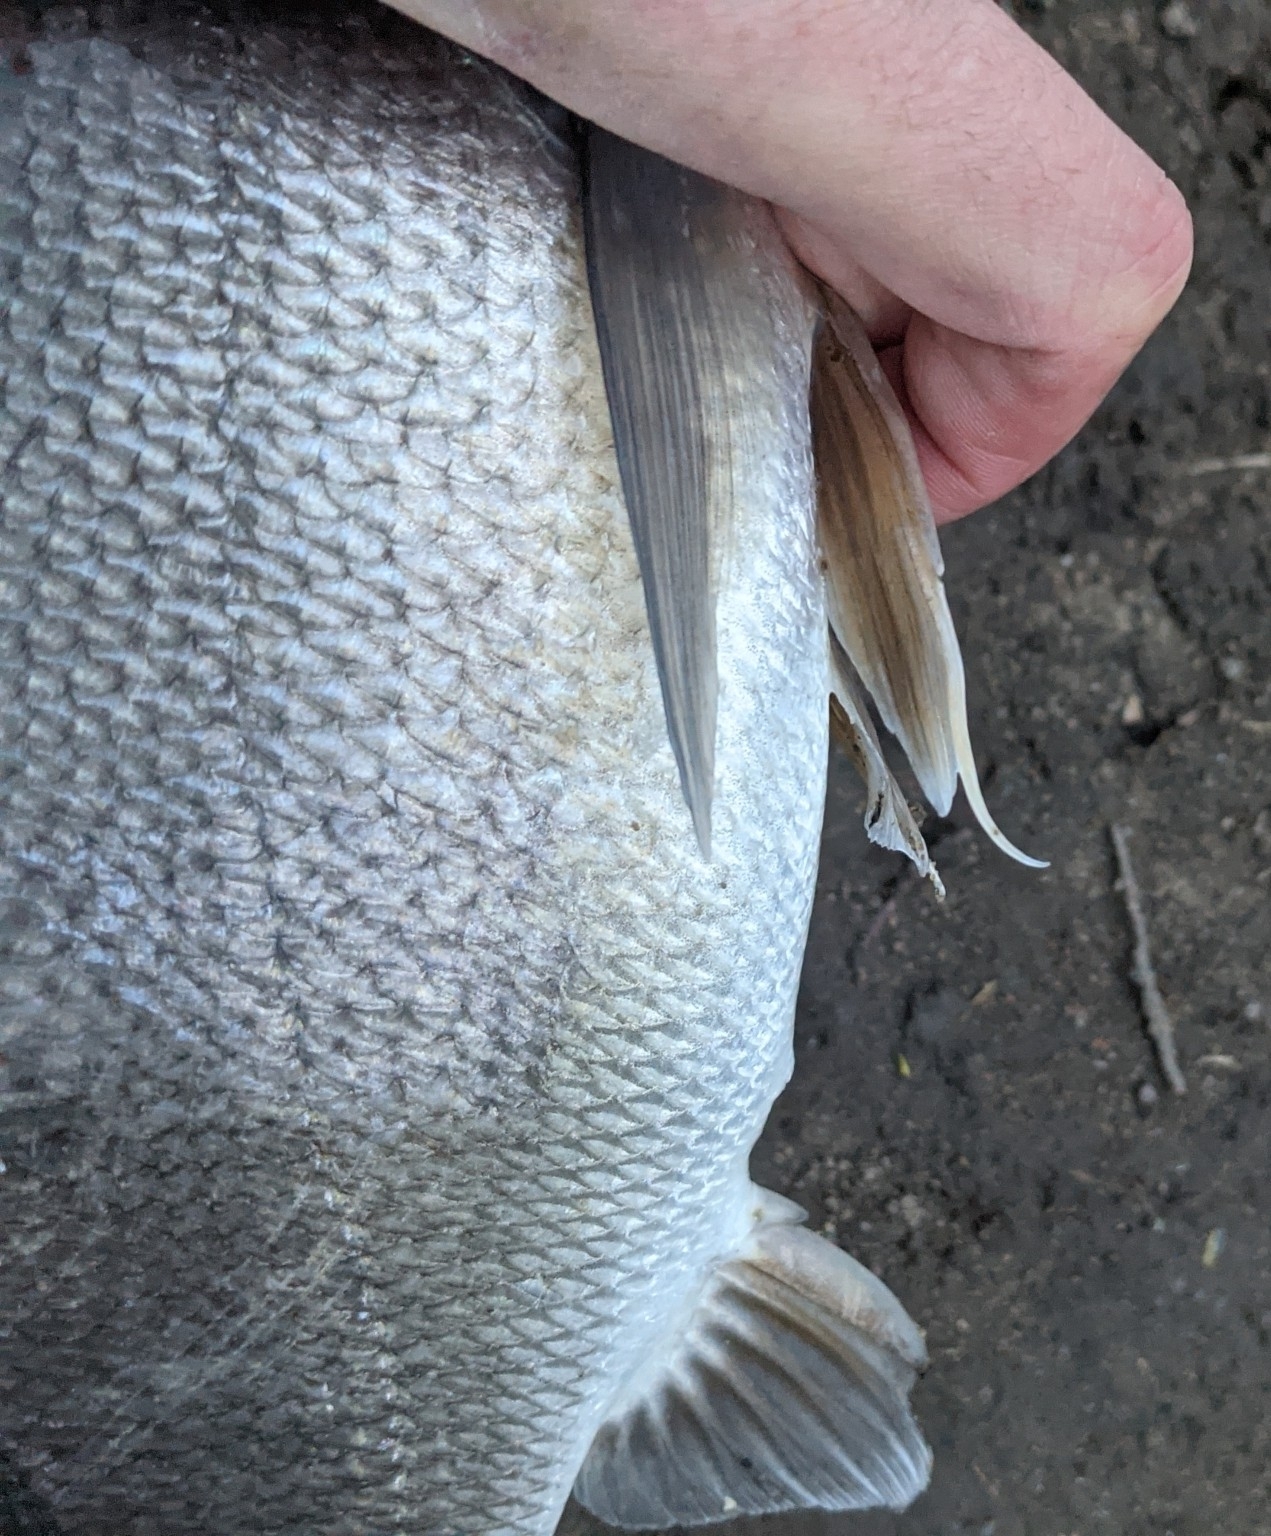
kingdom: Animalia
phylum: Chordata
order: Perciformes
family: Sciaenidae
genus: Aplodinotus
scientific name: Aplodinotus grunniens
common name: Freshwater drum
